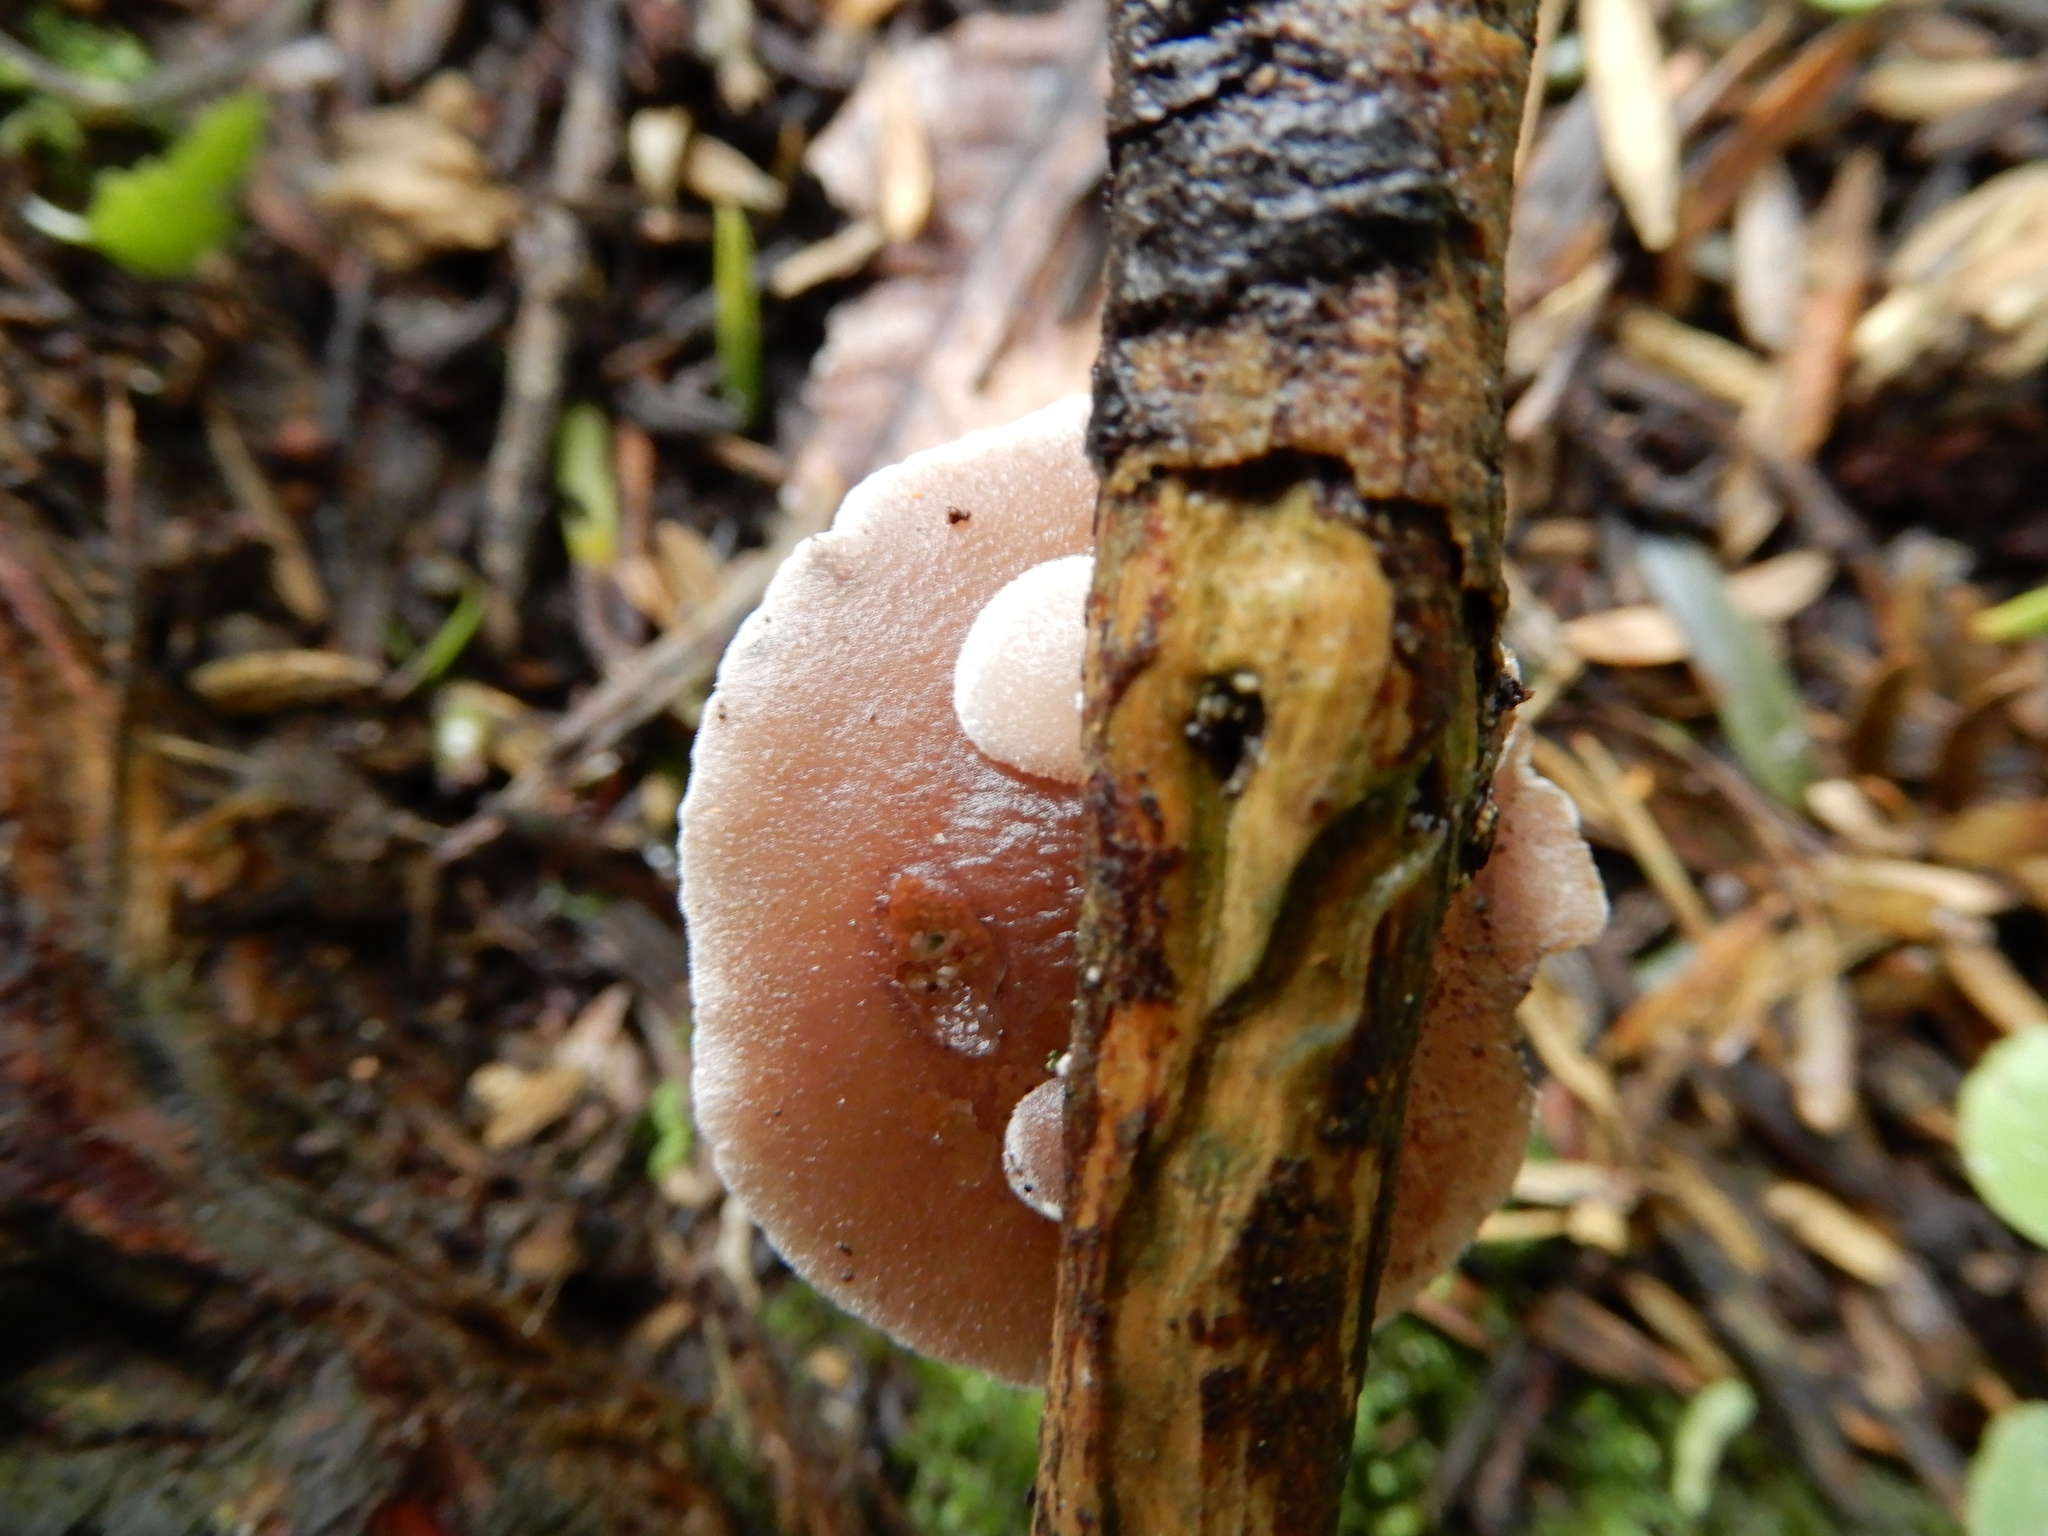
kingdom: Fungi
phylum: Basidiomycota
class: Agaricomycetes
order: Agaricales
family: Pleurotaceae
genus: Resupinatus
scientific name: Resupinatus vinosolividus
